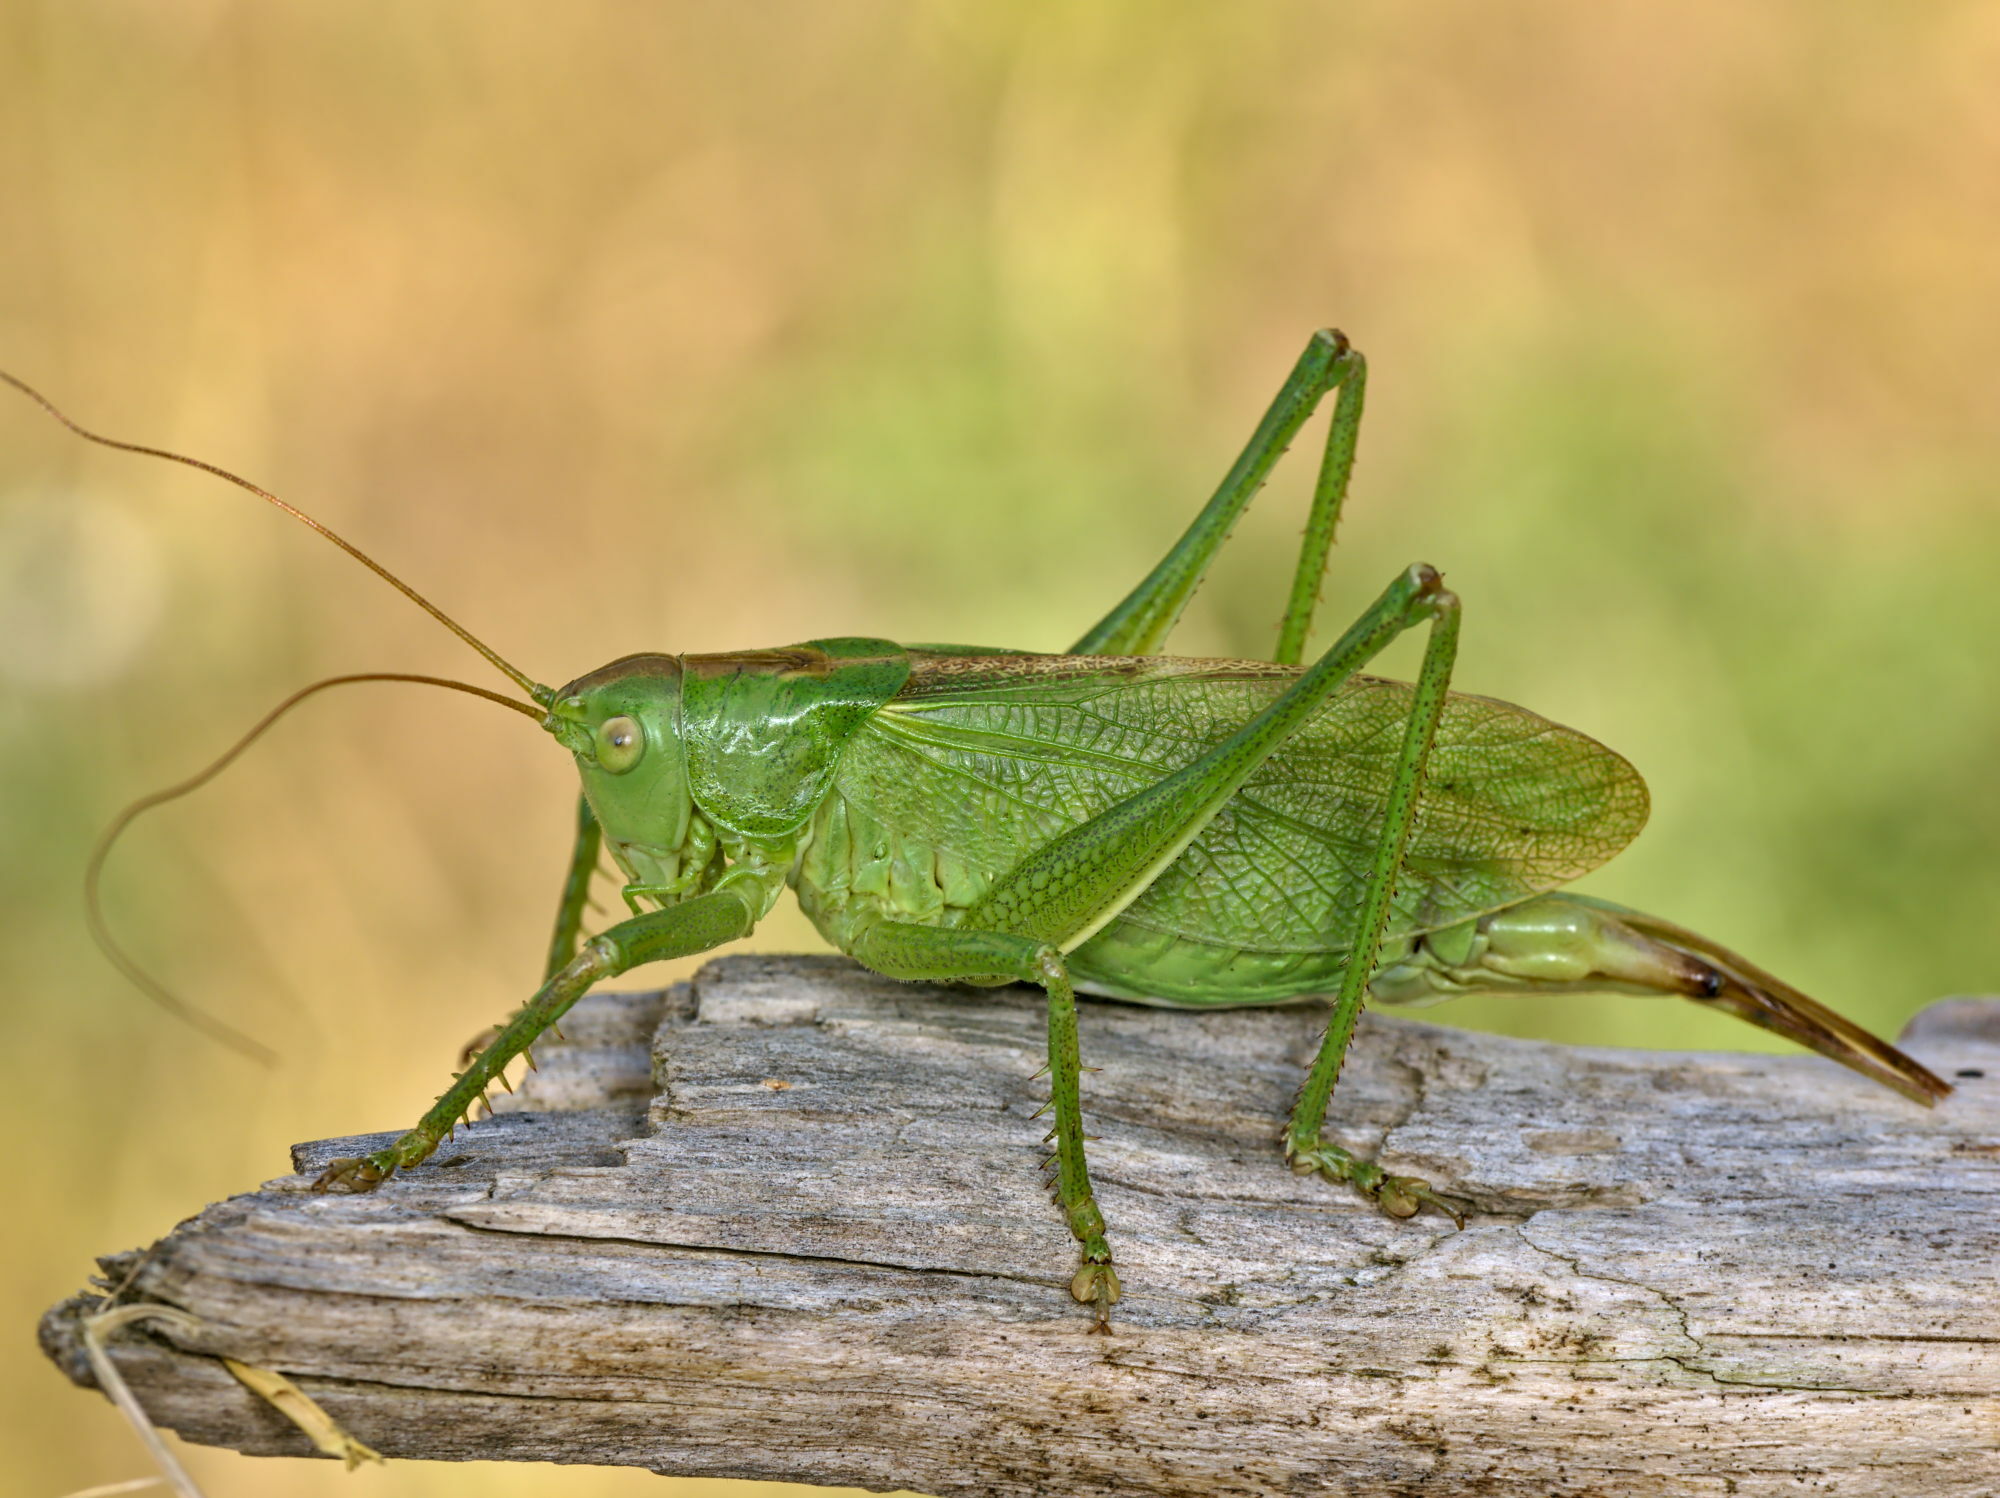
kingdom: Animalia
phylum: Arthropoda
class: Insecta
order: Orthoptera
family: Tettigoniidae
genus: Tettigonia
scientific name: Tettigonia cantans
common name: Upland green bush-cricket
